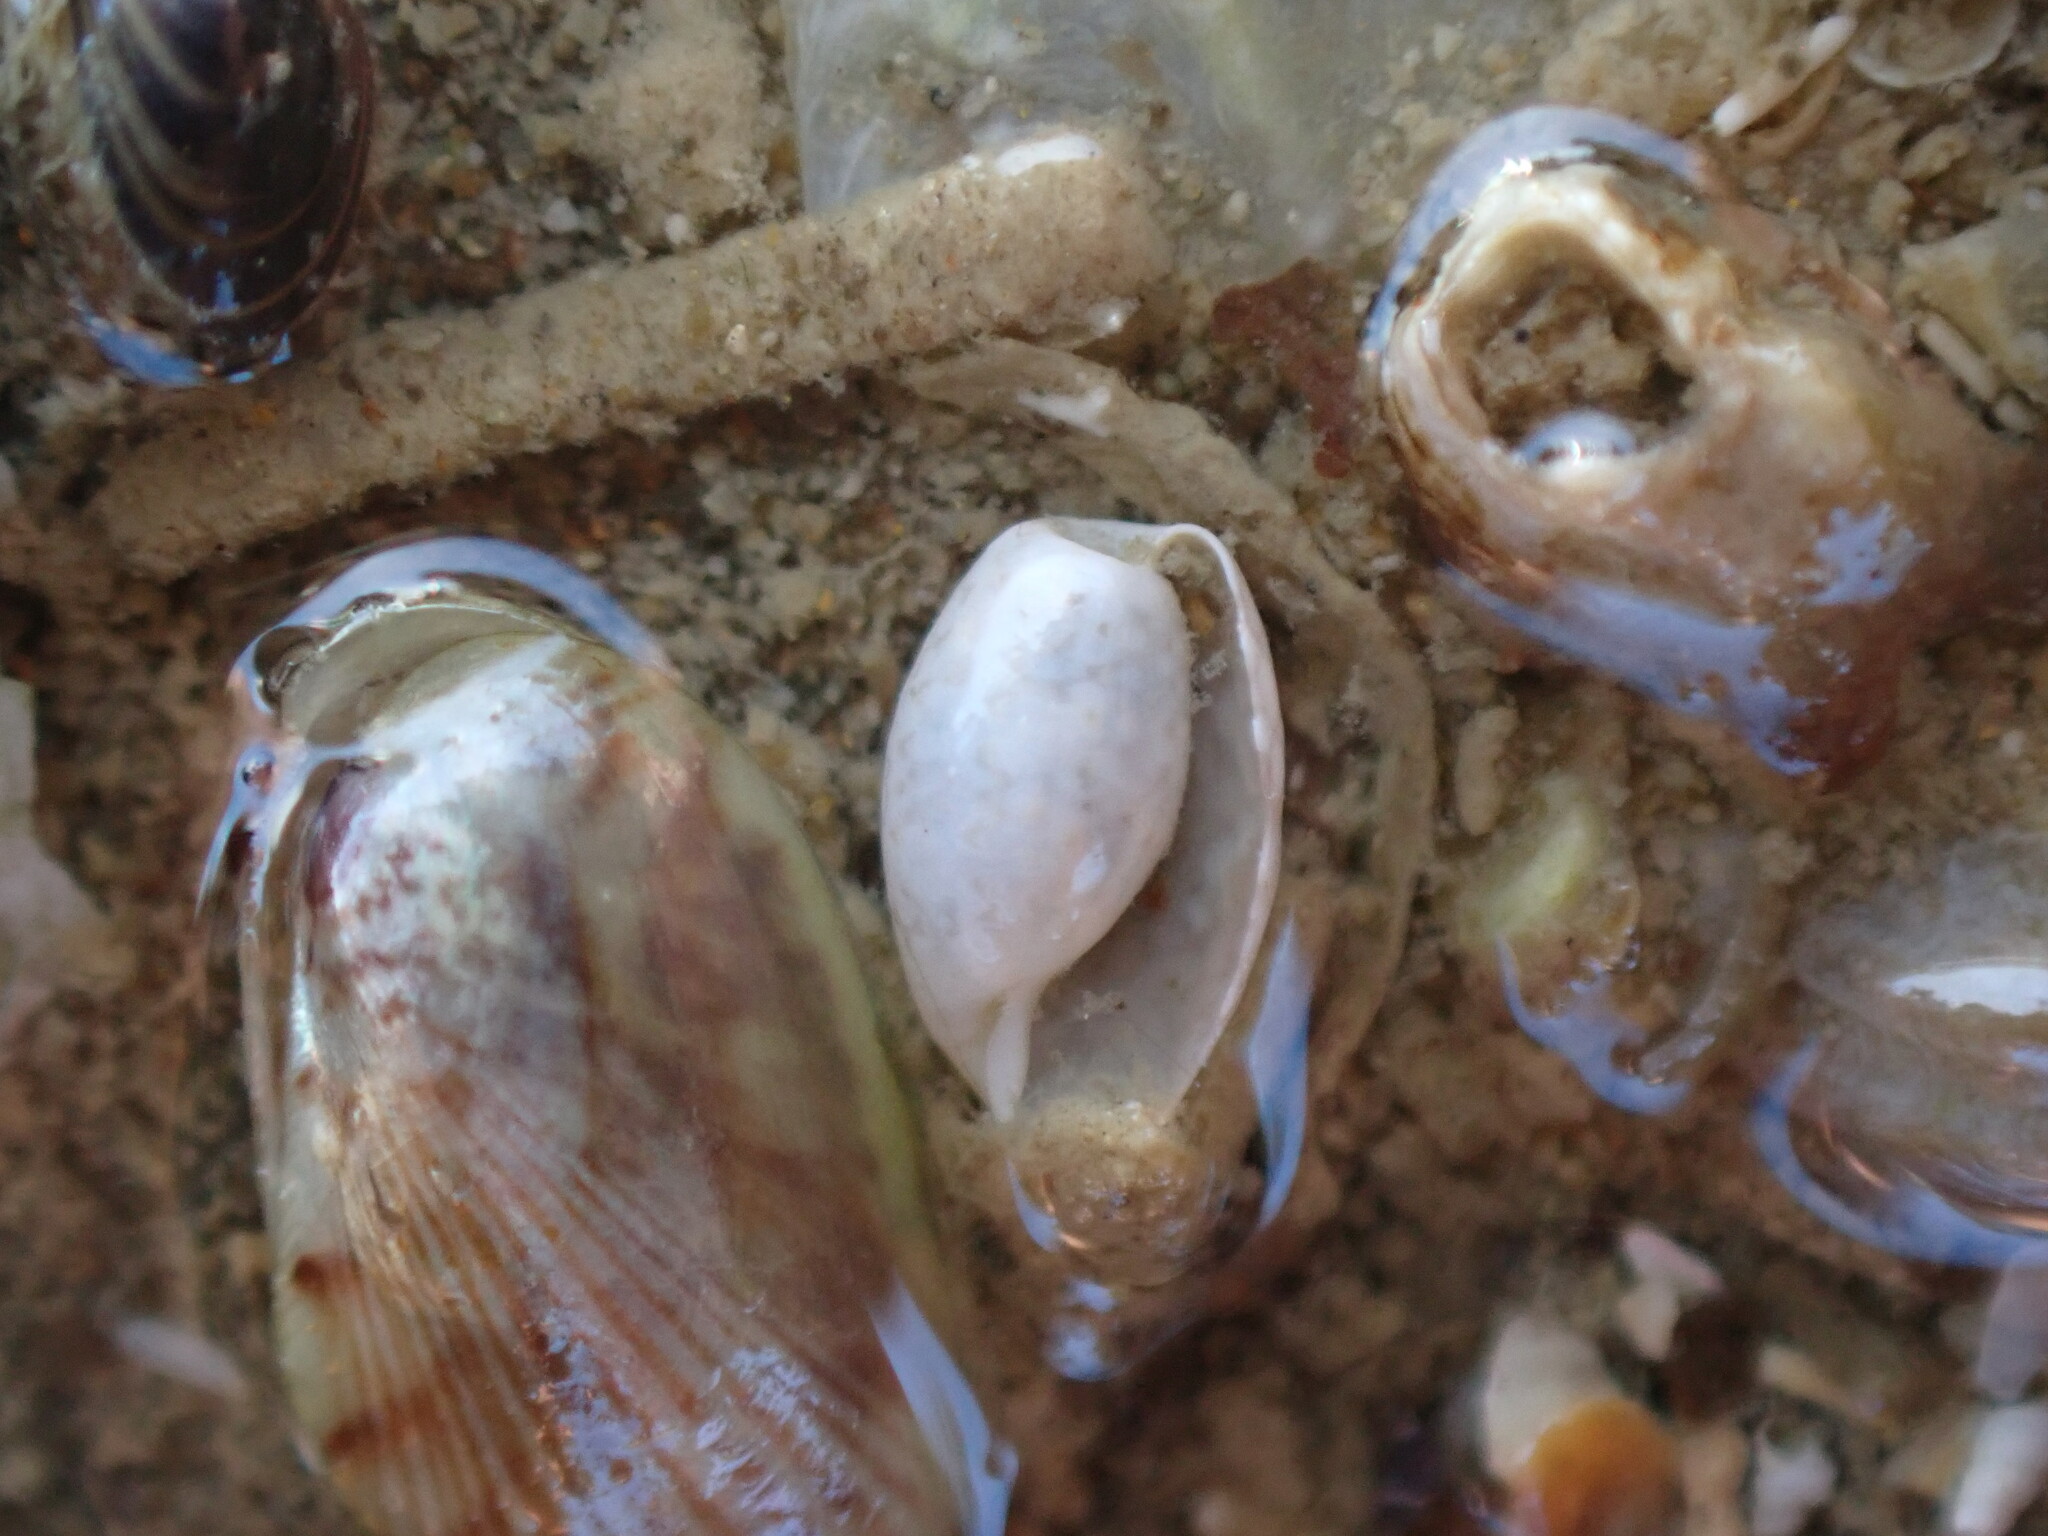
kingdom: Animalia
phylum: Mollusca
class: Gastropoda
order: Cephalaspidea
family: Bullidae
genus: Bulla
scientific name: Bulla quoyii
